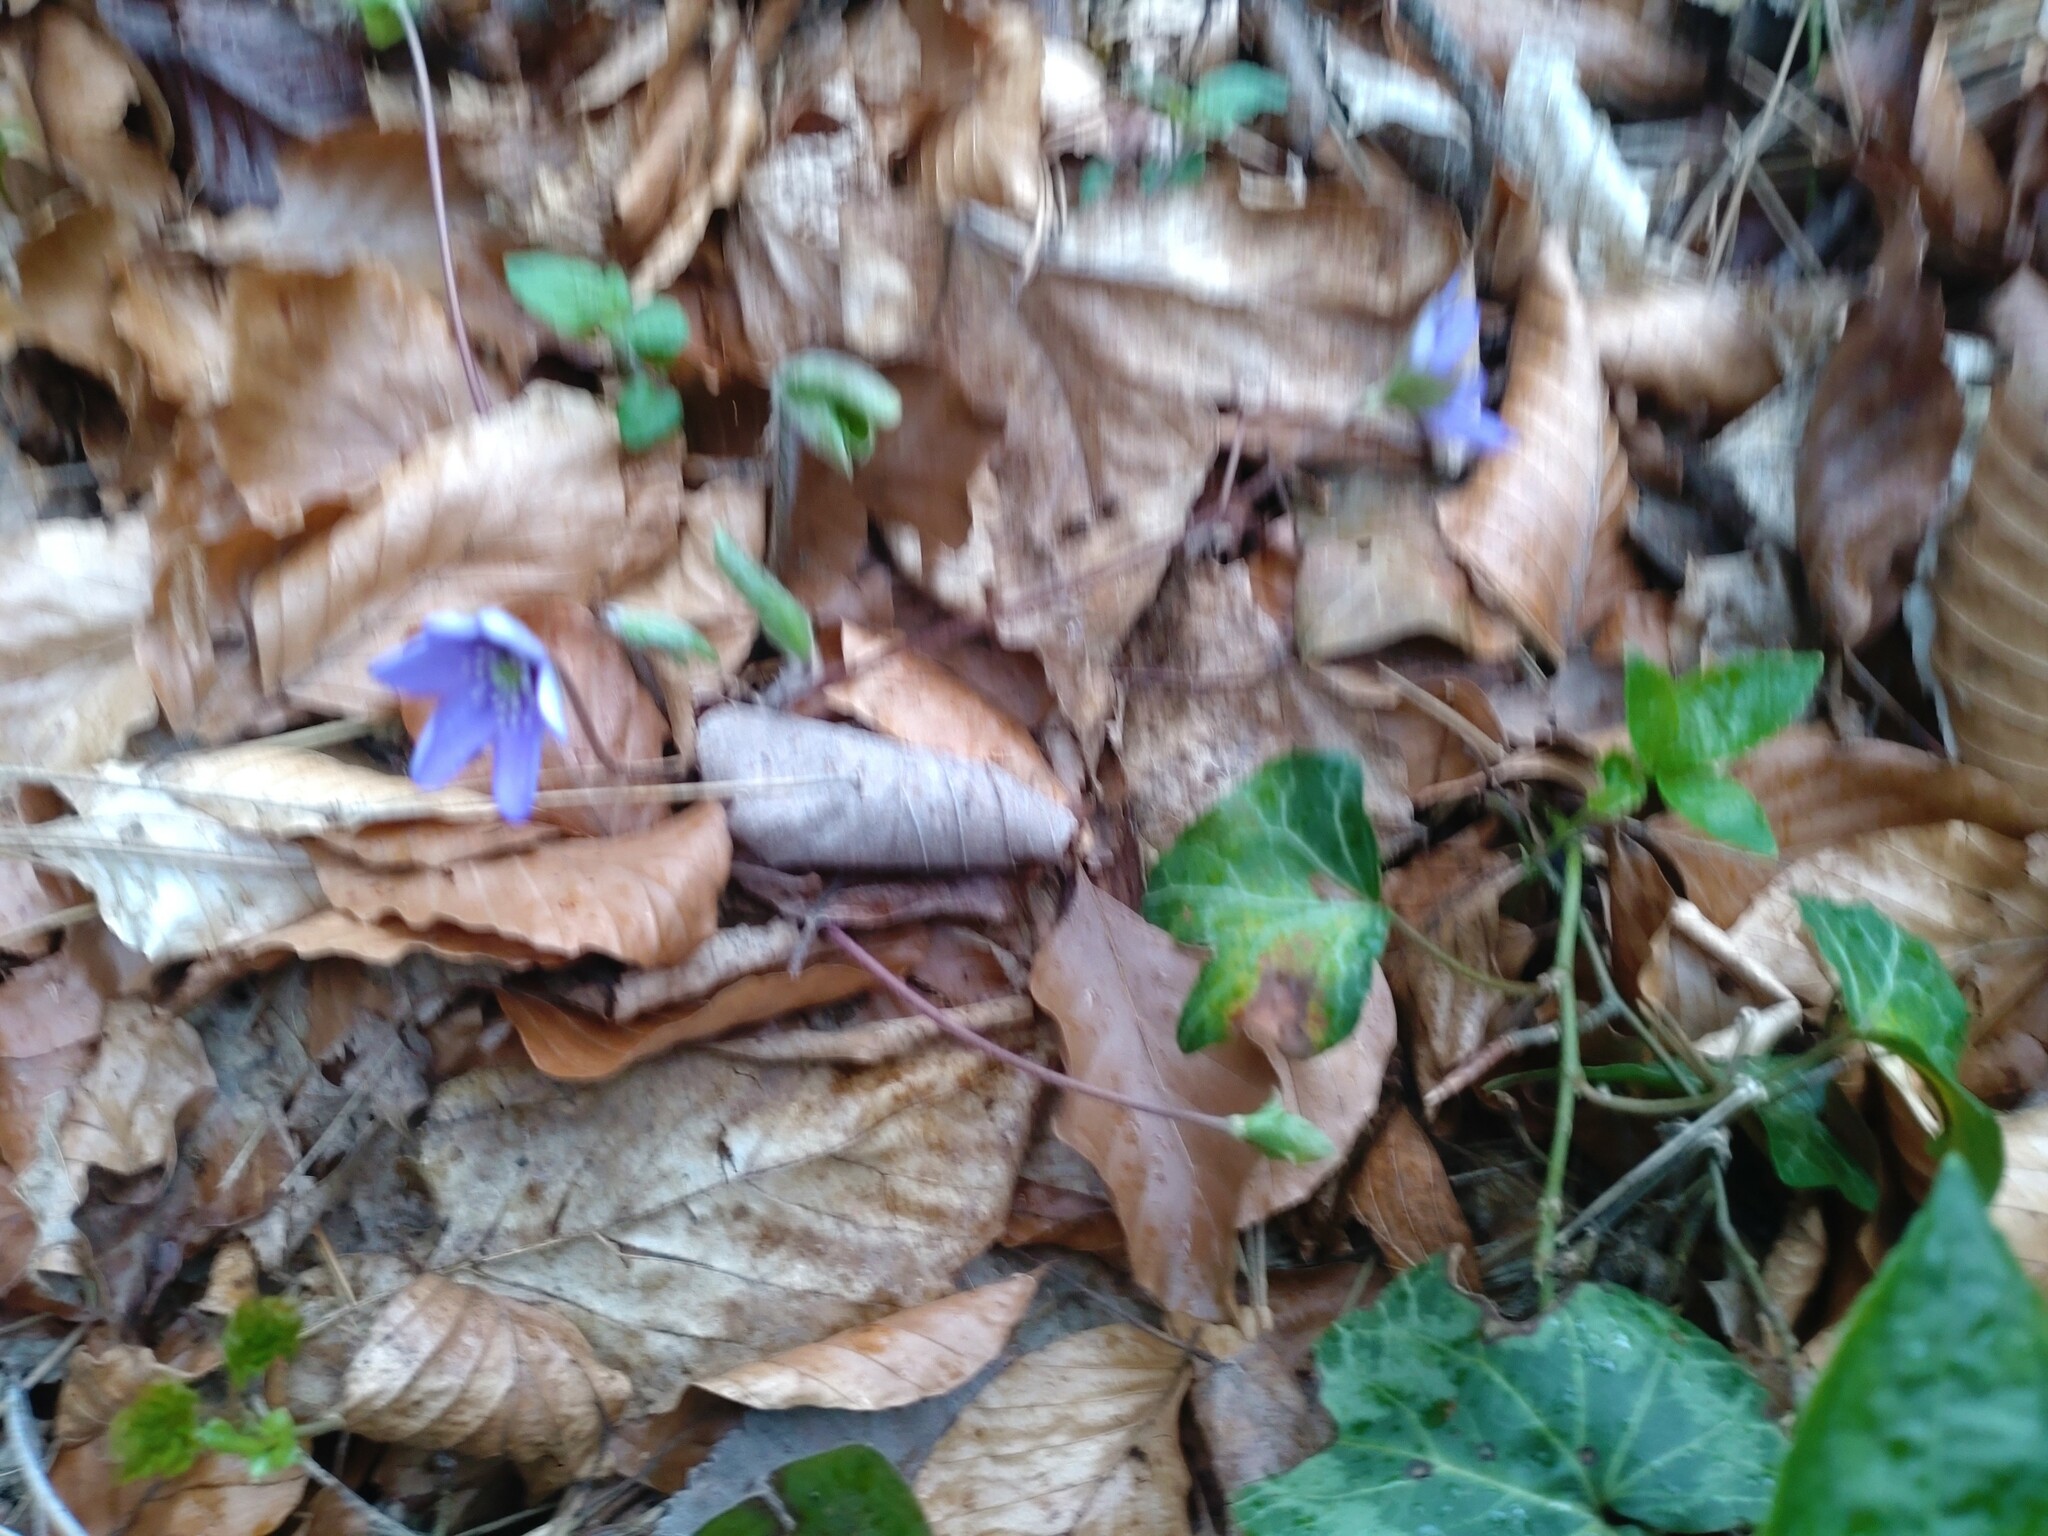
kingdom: Plantae
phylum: Tracheophyta
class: Magnoliopsida
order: Ranunculales
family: Ranunculaceae
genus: Hepatica
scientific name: Hepatica nobilis
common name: Liverleaf
